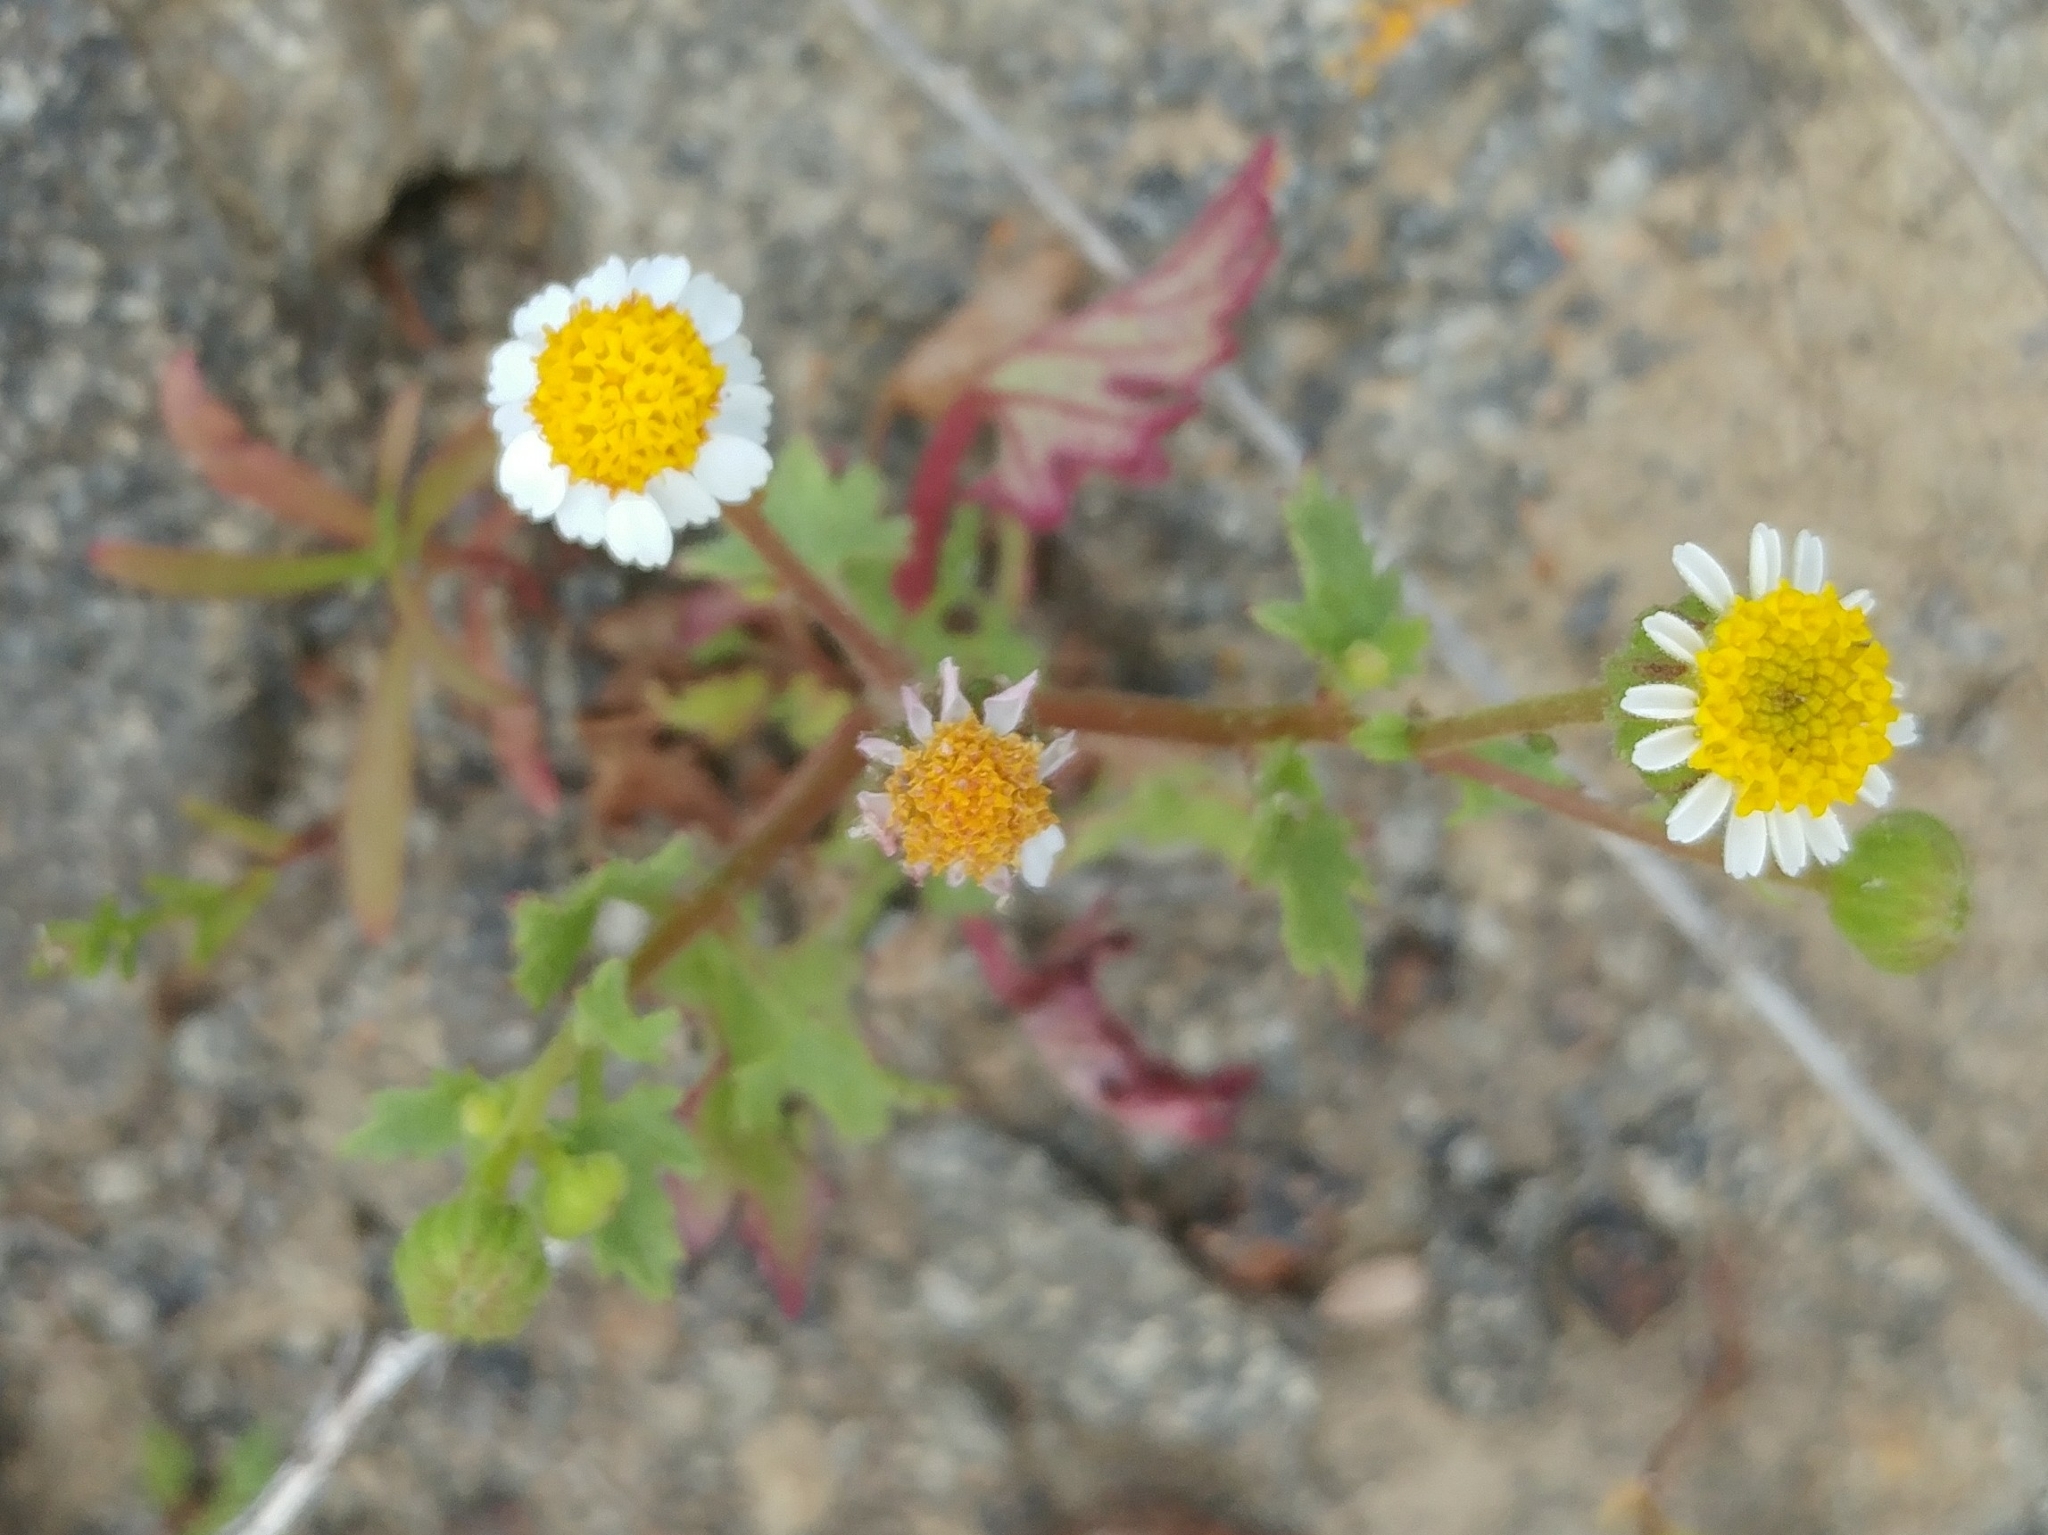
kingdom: Plantae
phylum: Tracheophyta
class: Magnoliopsida
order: Asterales
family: Asteraceae
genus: Laphamia
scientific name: Laphamia emoryi
